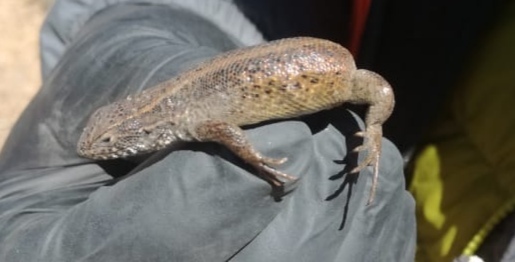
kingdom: Animalia
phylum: Chordata
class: Squamata
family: Liolaemidae
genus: Liolaemus
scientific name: Liolaemus puna
